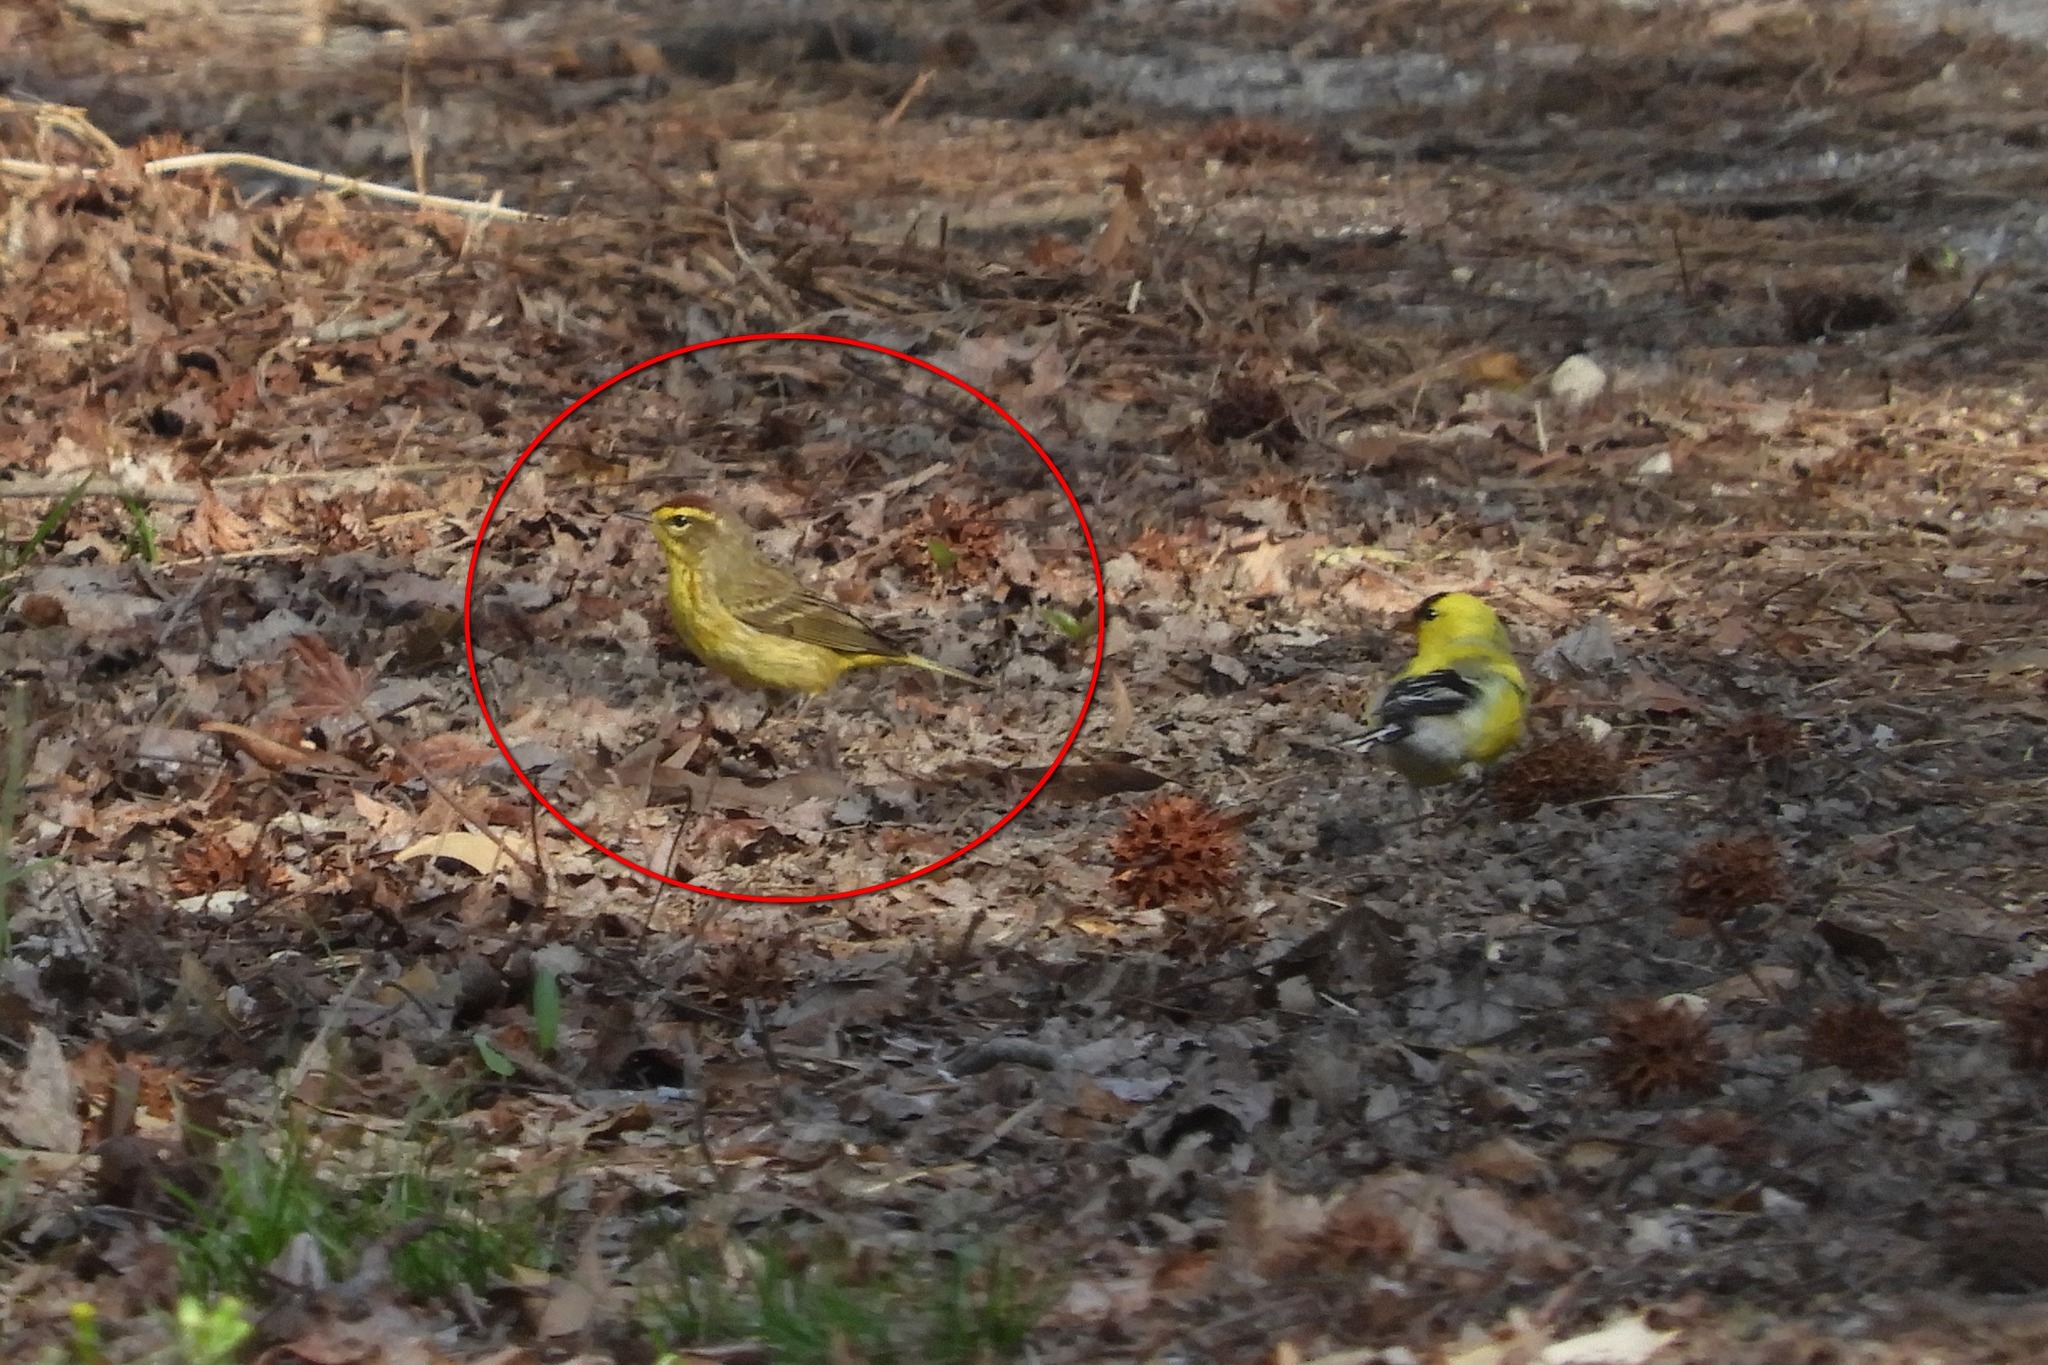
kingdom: Animalia
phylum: Chordata
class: Aves
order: Passeriformes
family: Parulidae
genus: Setophaga
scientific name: Setophaga palmarum
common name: Palm warbler
